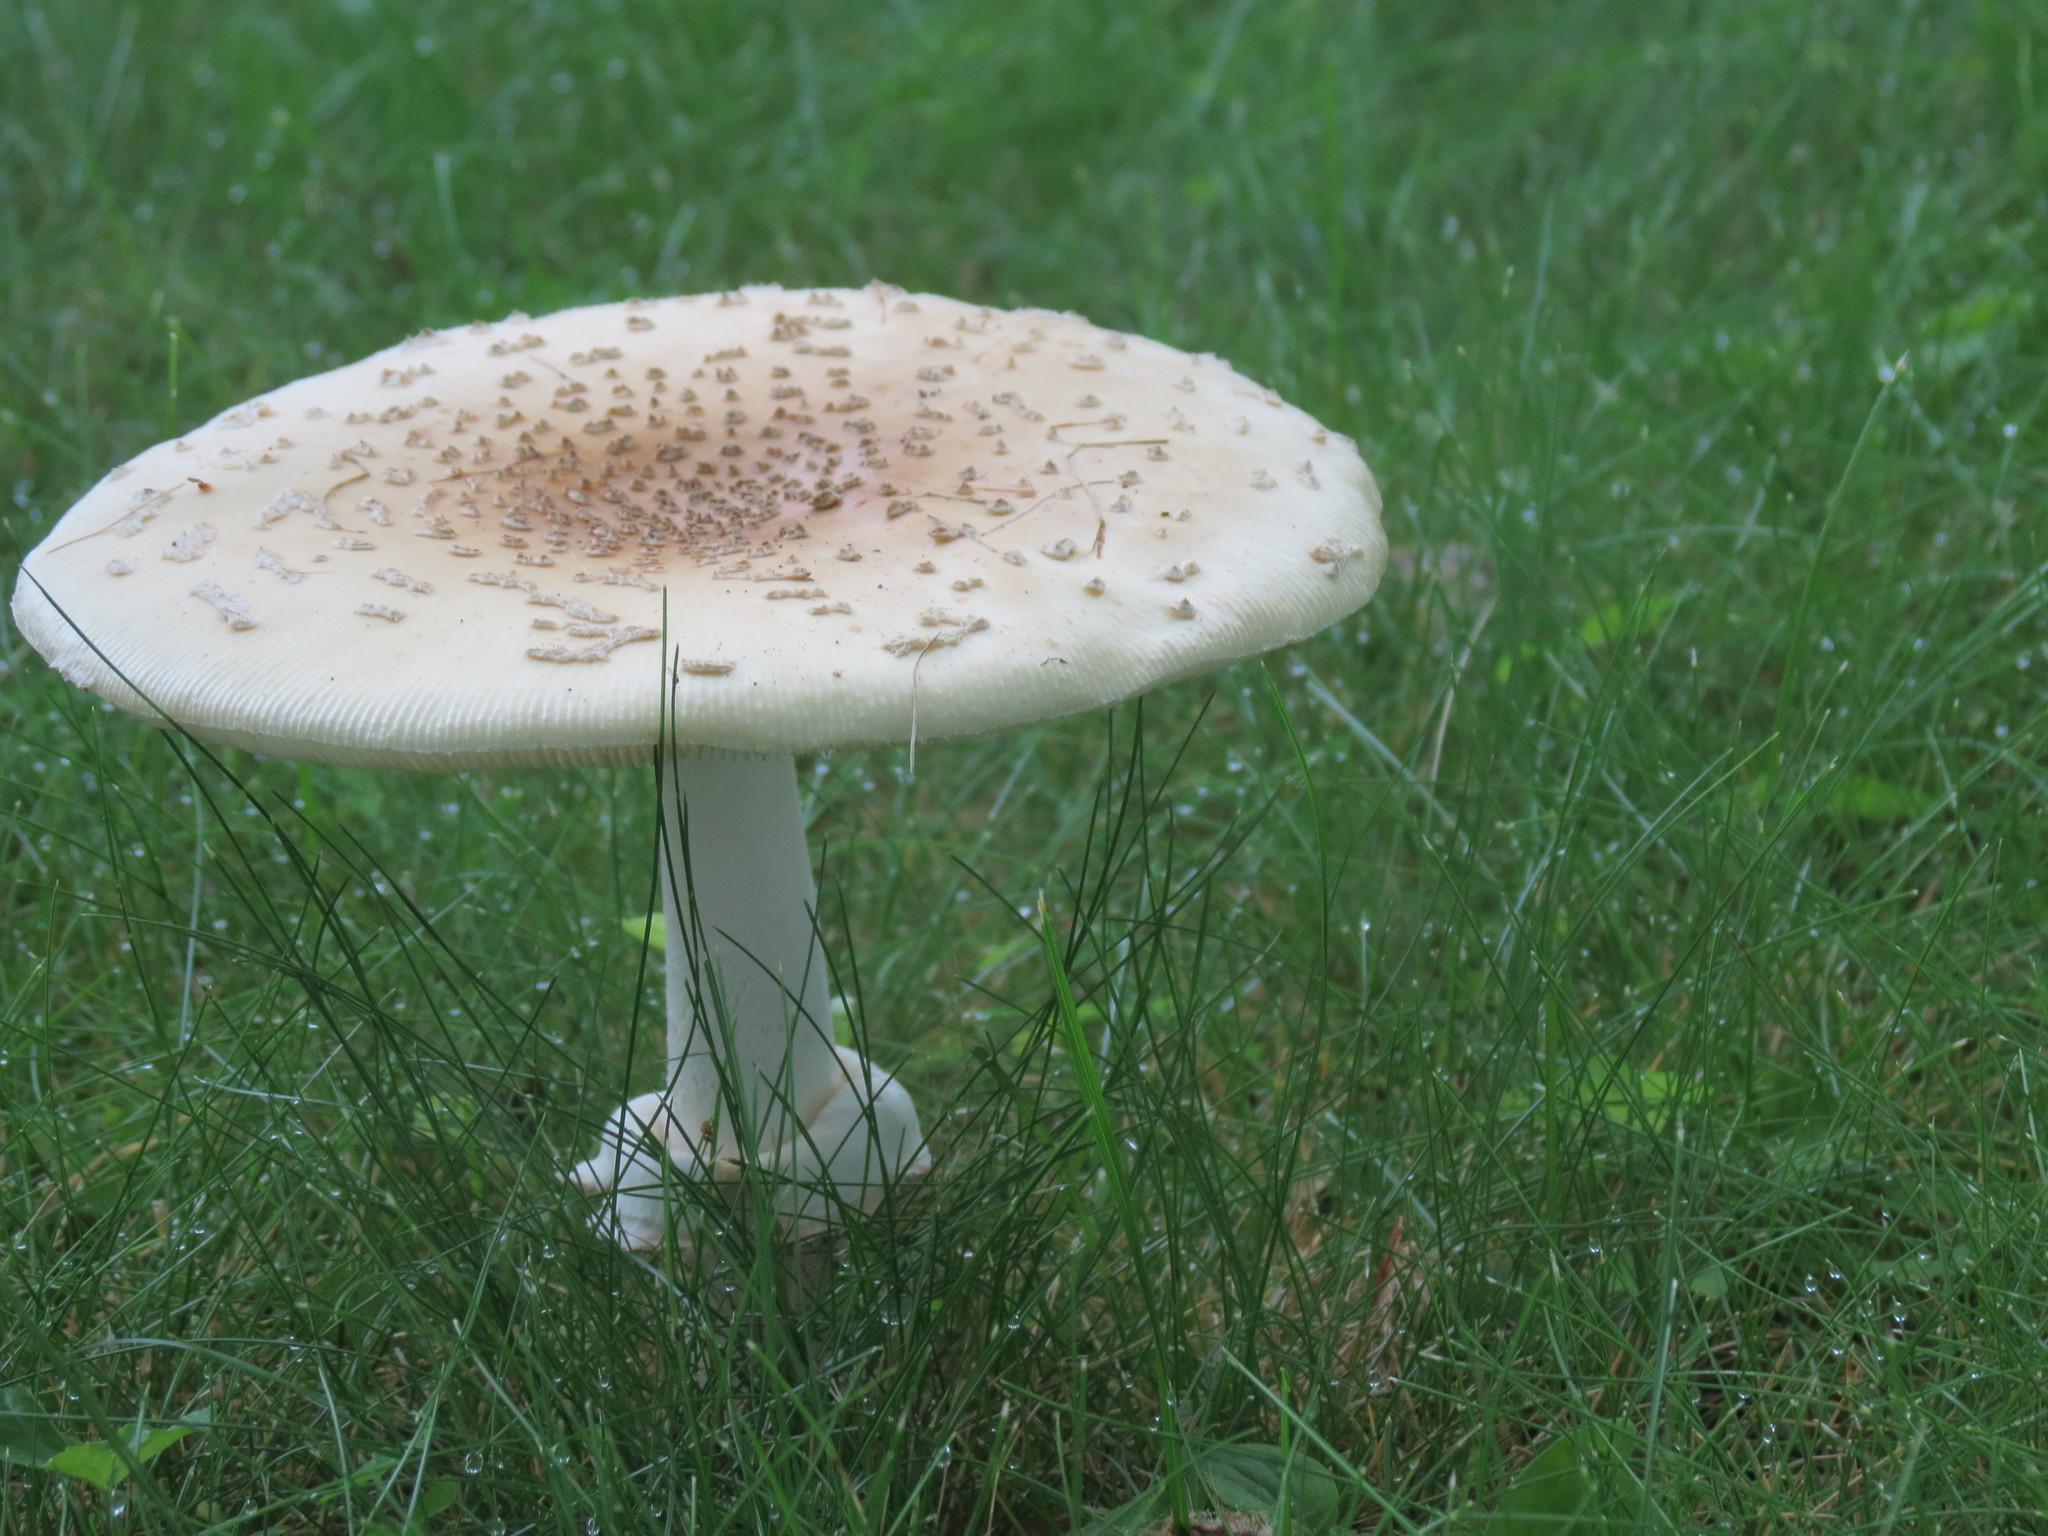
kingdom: Fungi
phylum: Basidiomycota
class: Agaricomycetes
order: Agaricales
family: Amanitaceae
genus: Amanita
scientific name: Amanita multisquamosa
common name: Small funnel-veil amanita
